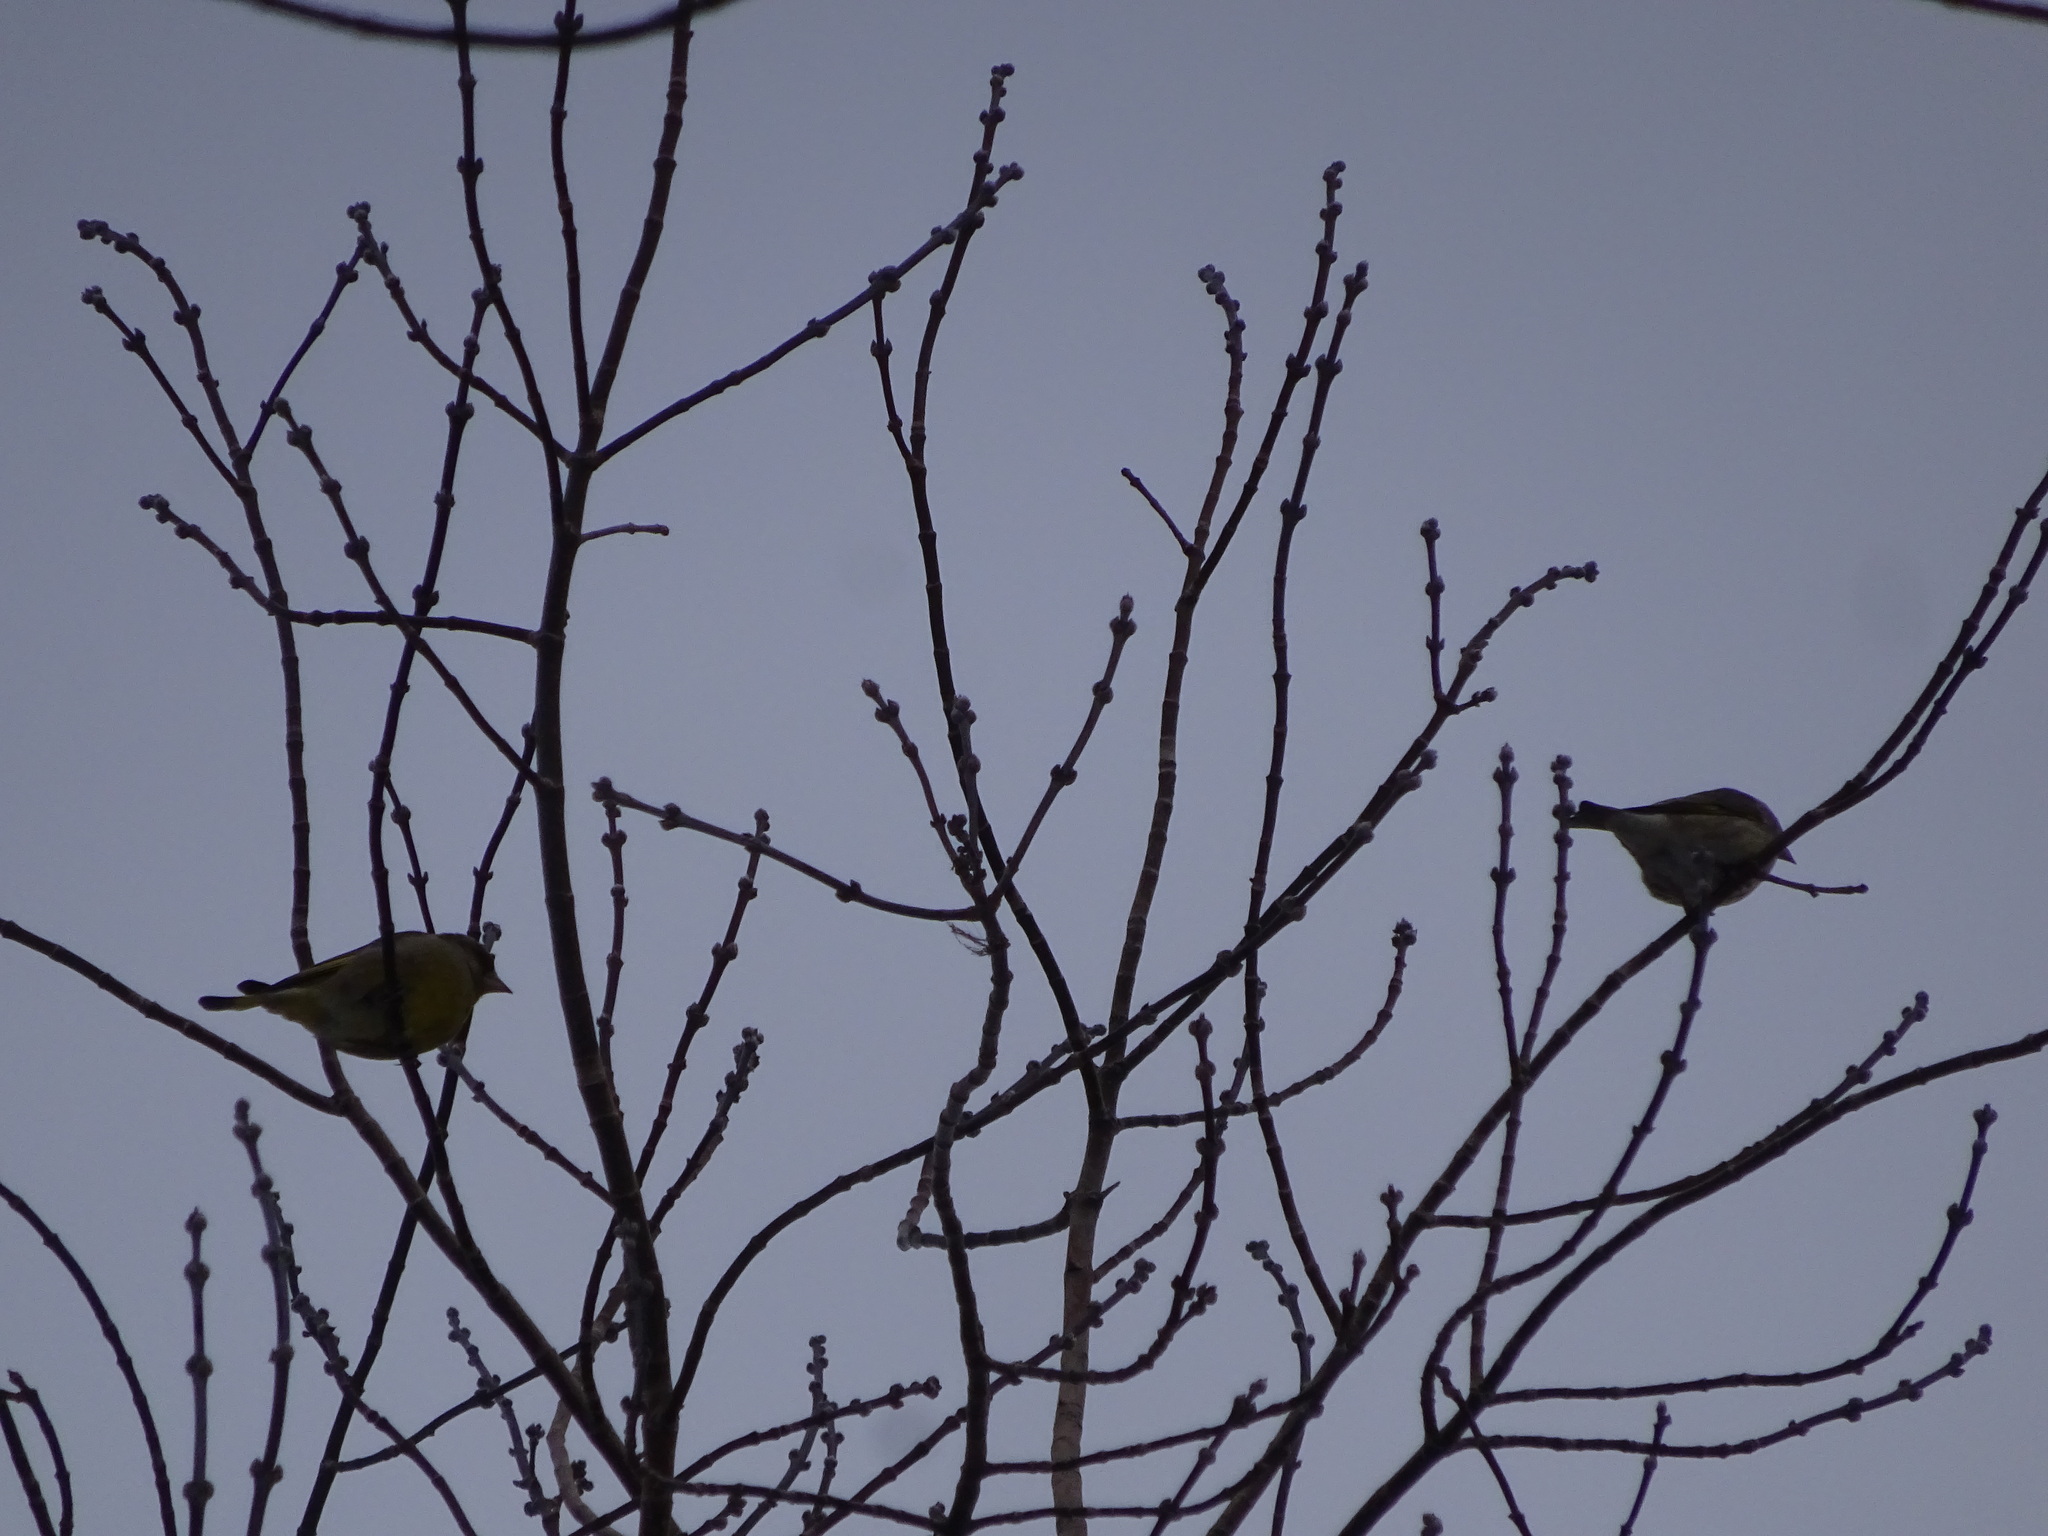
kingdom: Plantae
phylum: Tracheophyta
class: Liliopsida
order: Poales
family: Poaceae
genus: Chloris
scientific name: Chloris chloris
